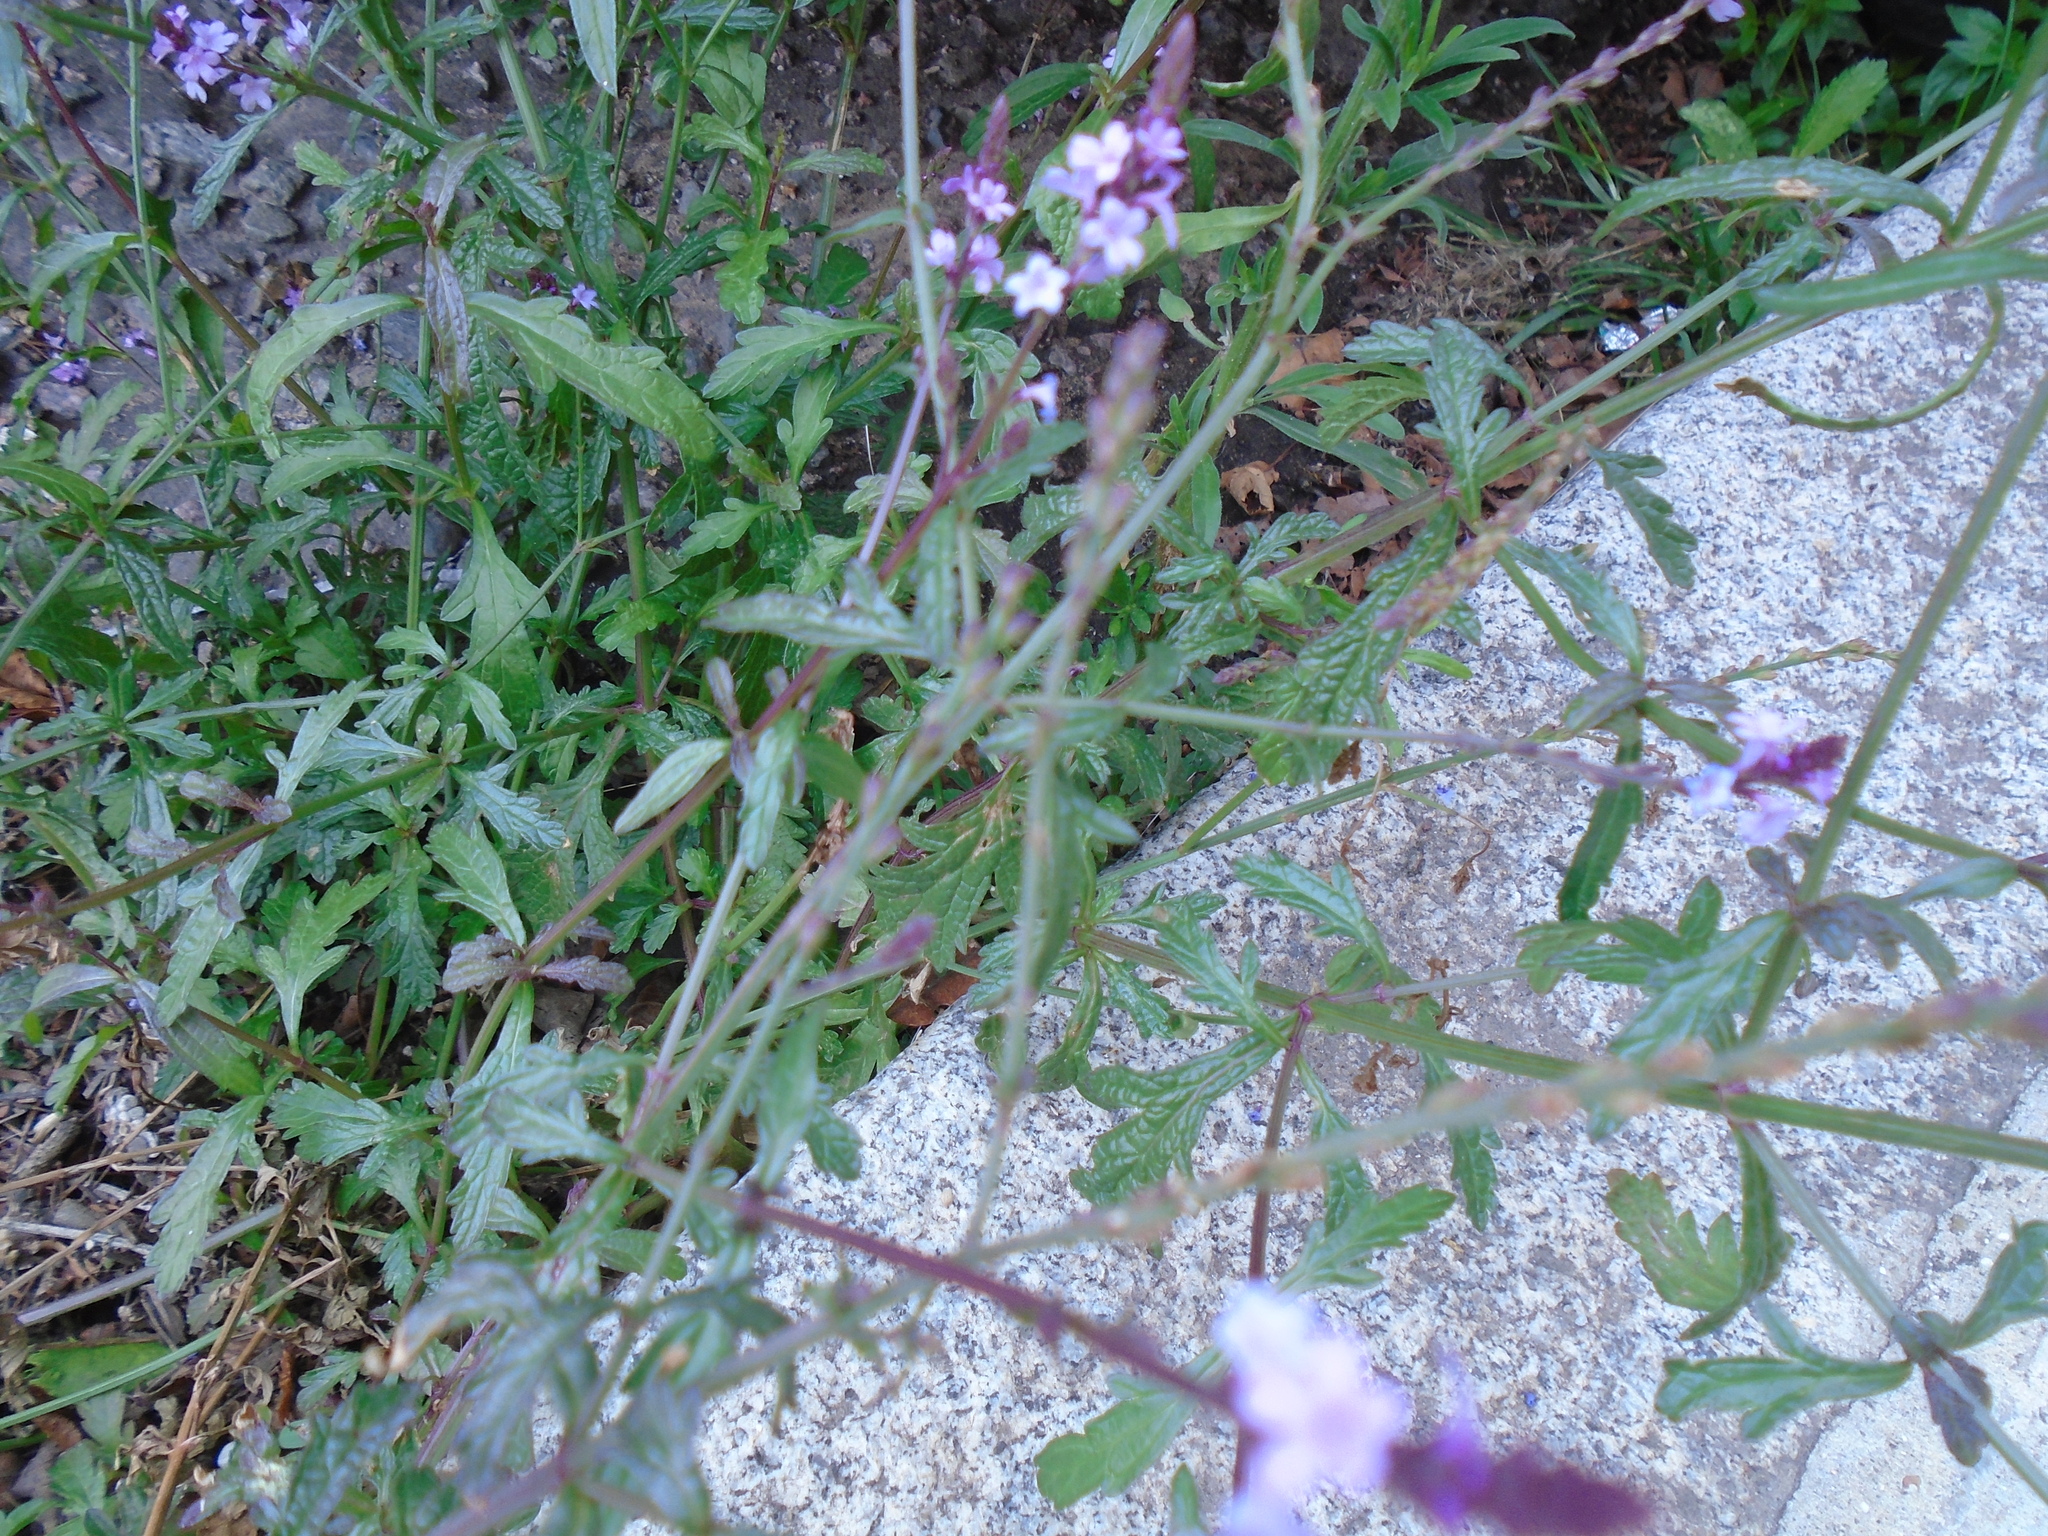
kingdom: Plantae
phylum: Tracheophyta
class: Magnoliopsida
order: Lamiales
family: Verbenaceae
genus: Verbena
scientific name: Verbena officinalis
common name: Vervain
